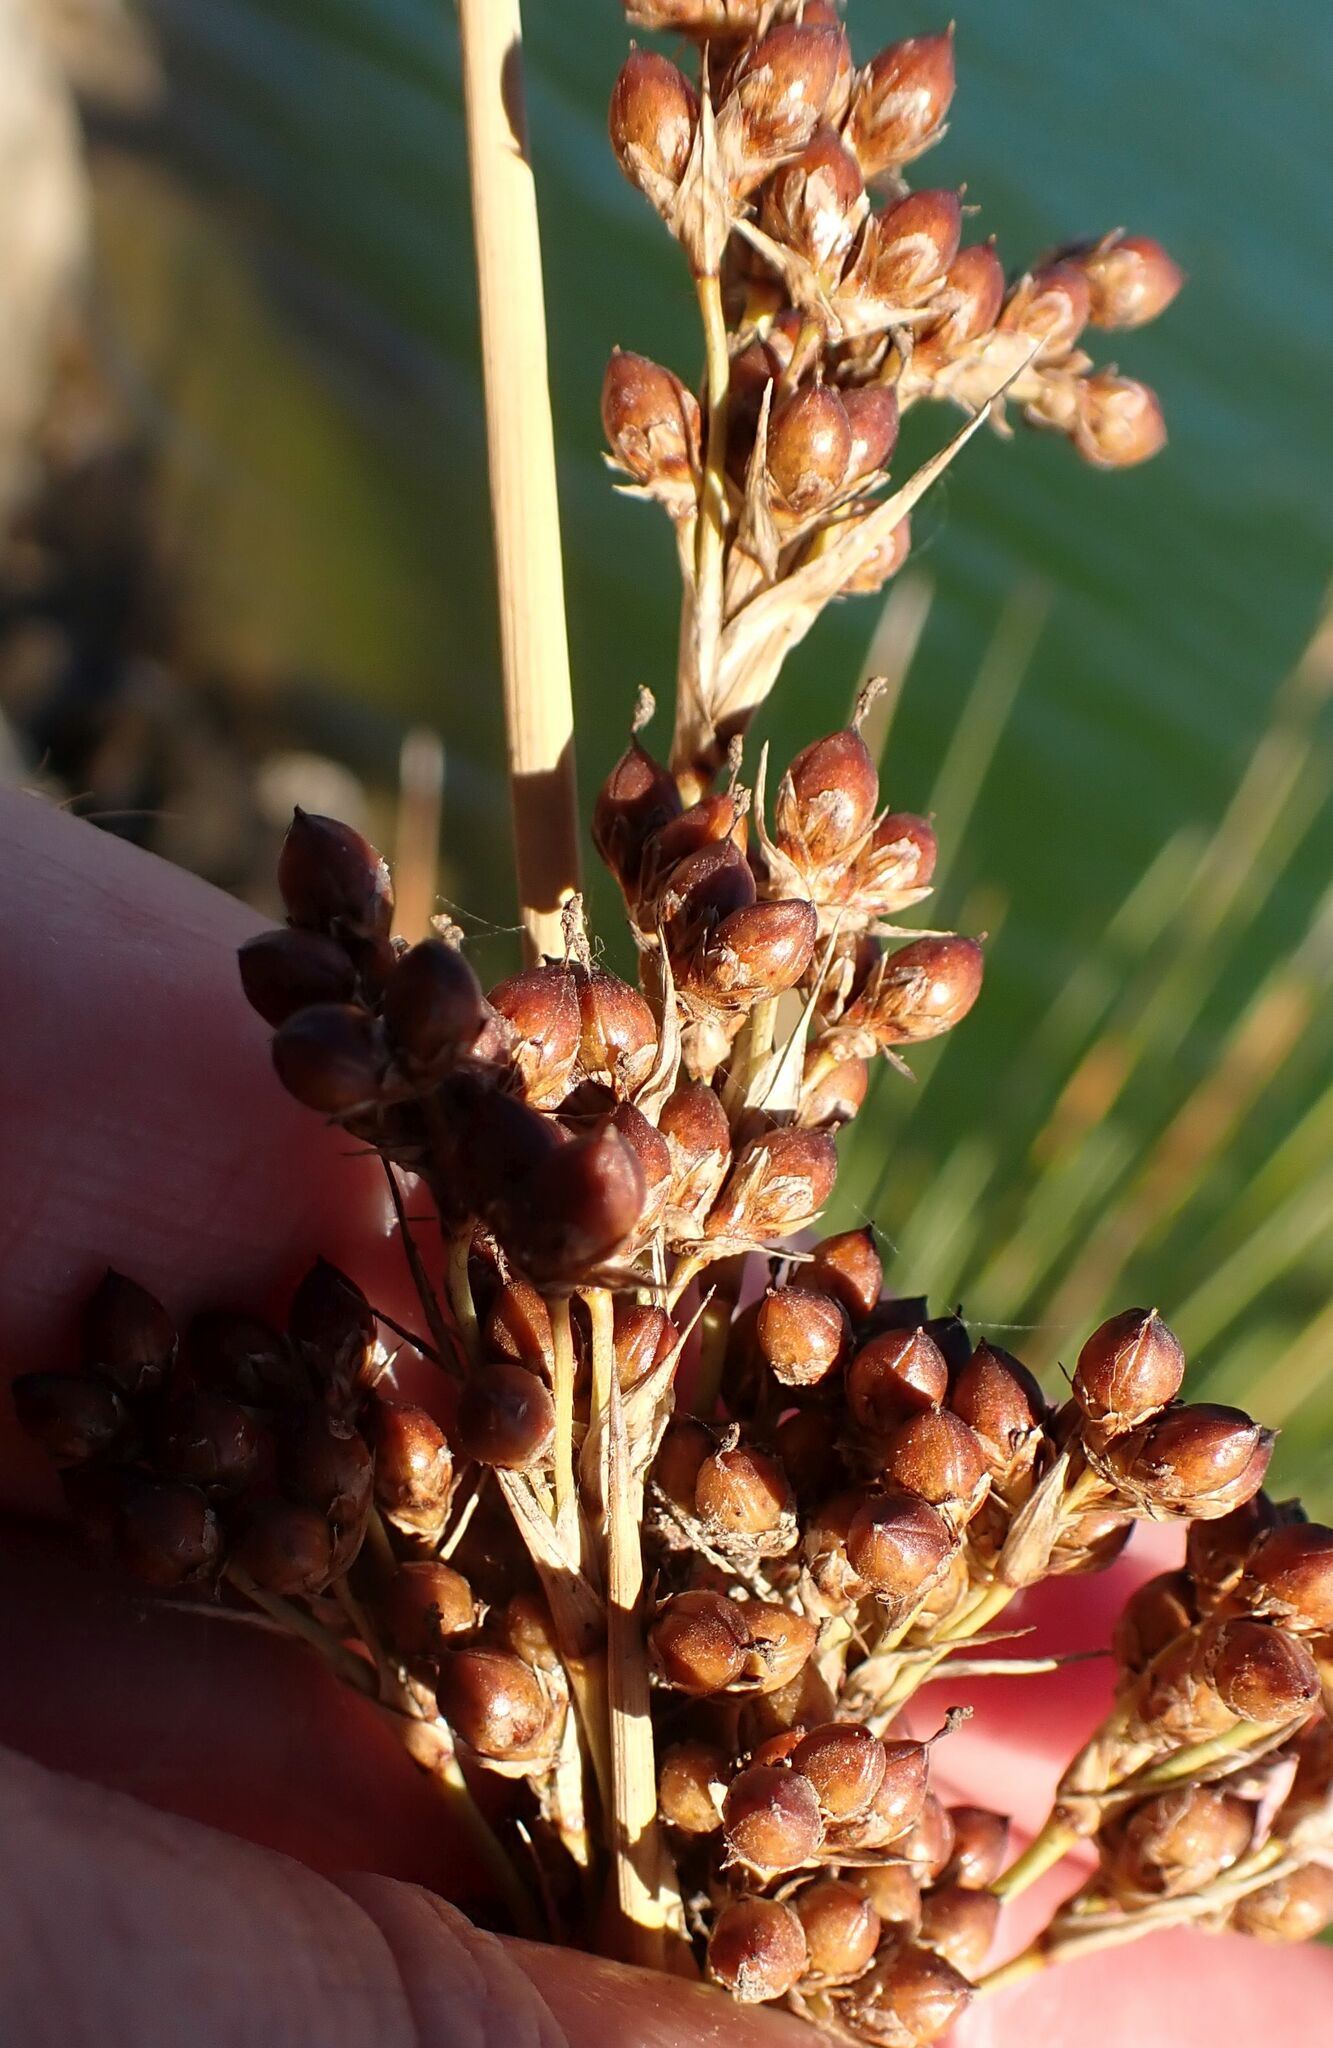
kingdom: Plantae
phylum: Tracheophyta
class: Liliopsida
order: Poales
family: Juncaceae
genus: Juncus
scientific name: Juncus acutus
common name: Sharp rush
